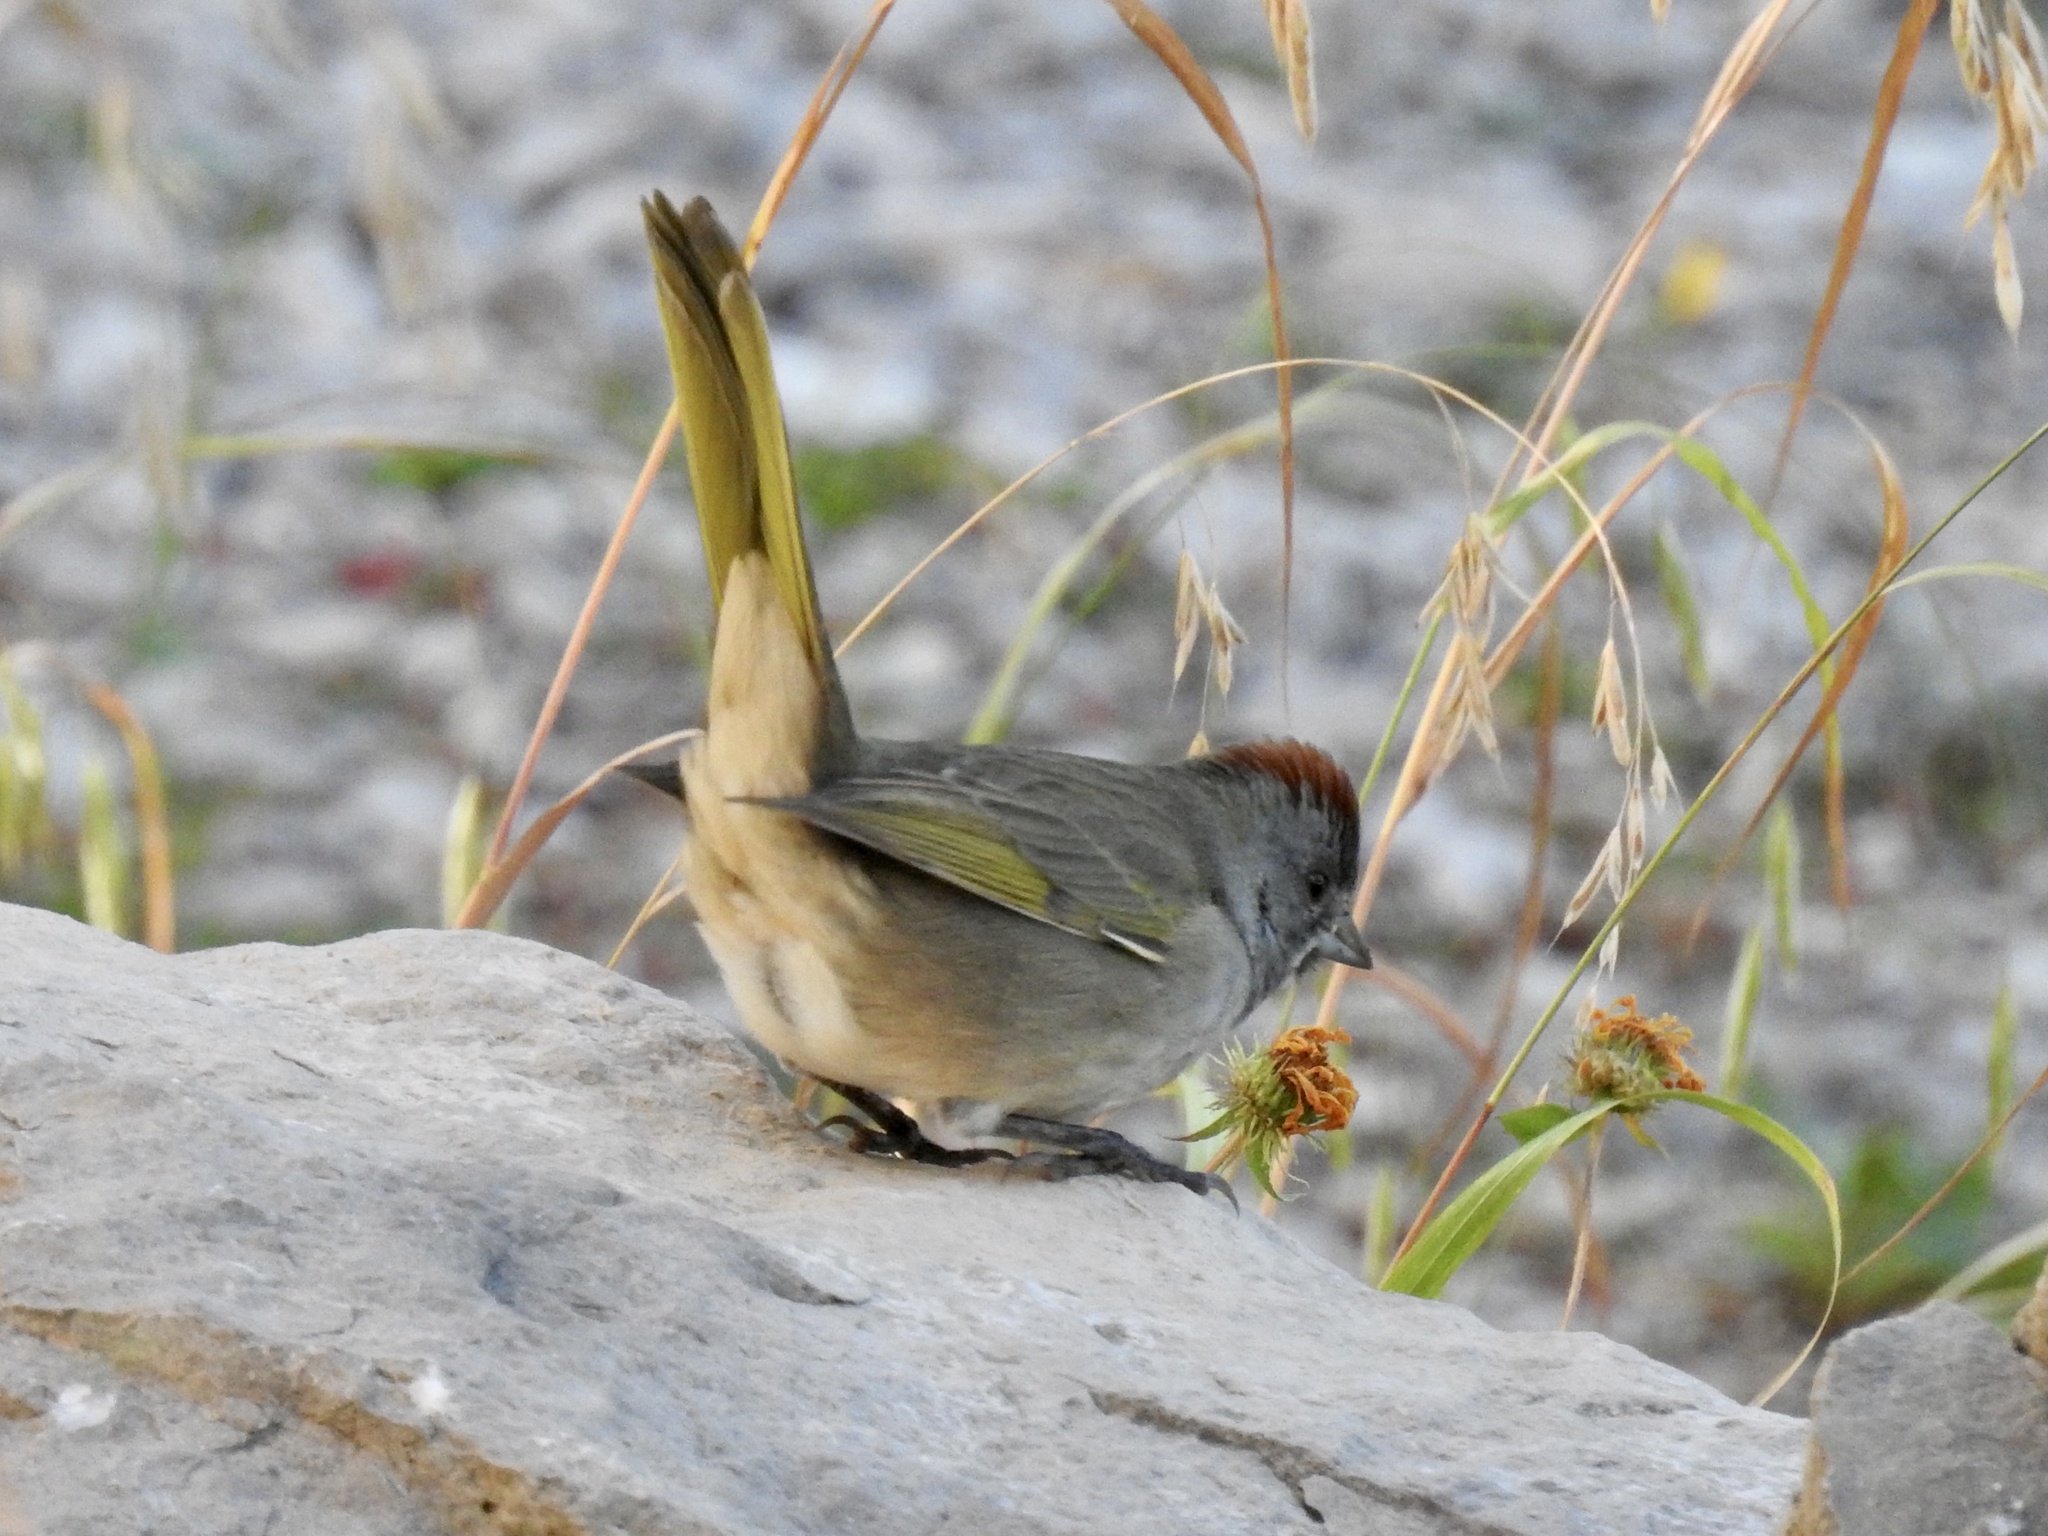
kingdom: Animalia
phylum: Chordata
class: Aves
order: Passeriformes
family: Passerellidae
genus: Pipilo
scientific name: Pipilo chlorurus
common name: Green-tailed towhee
